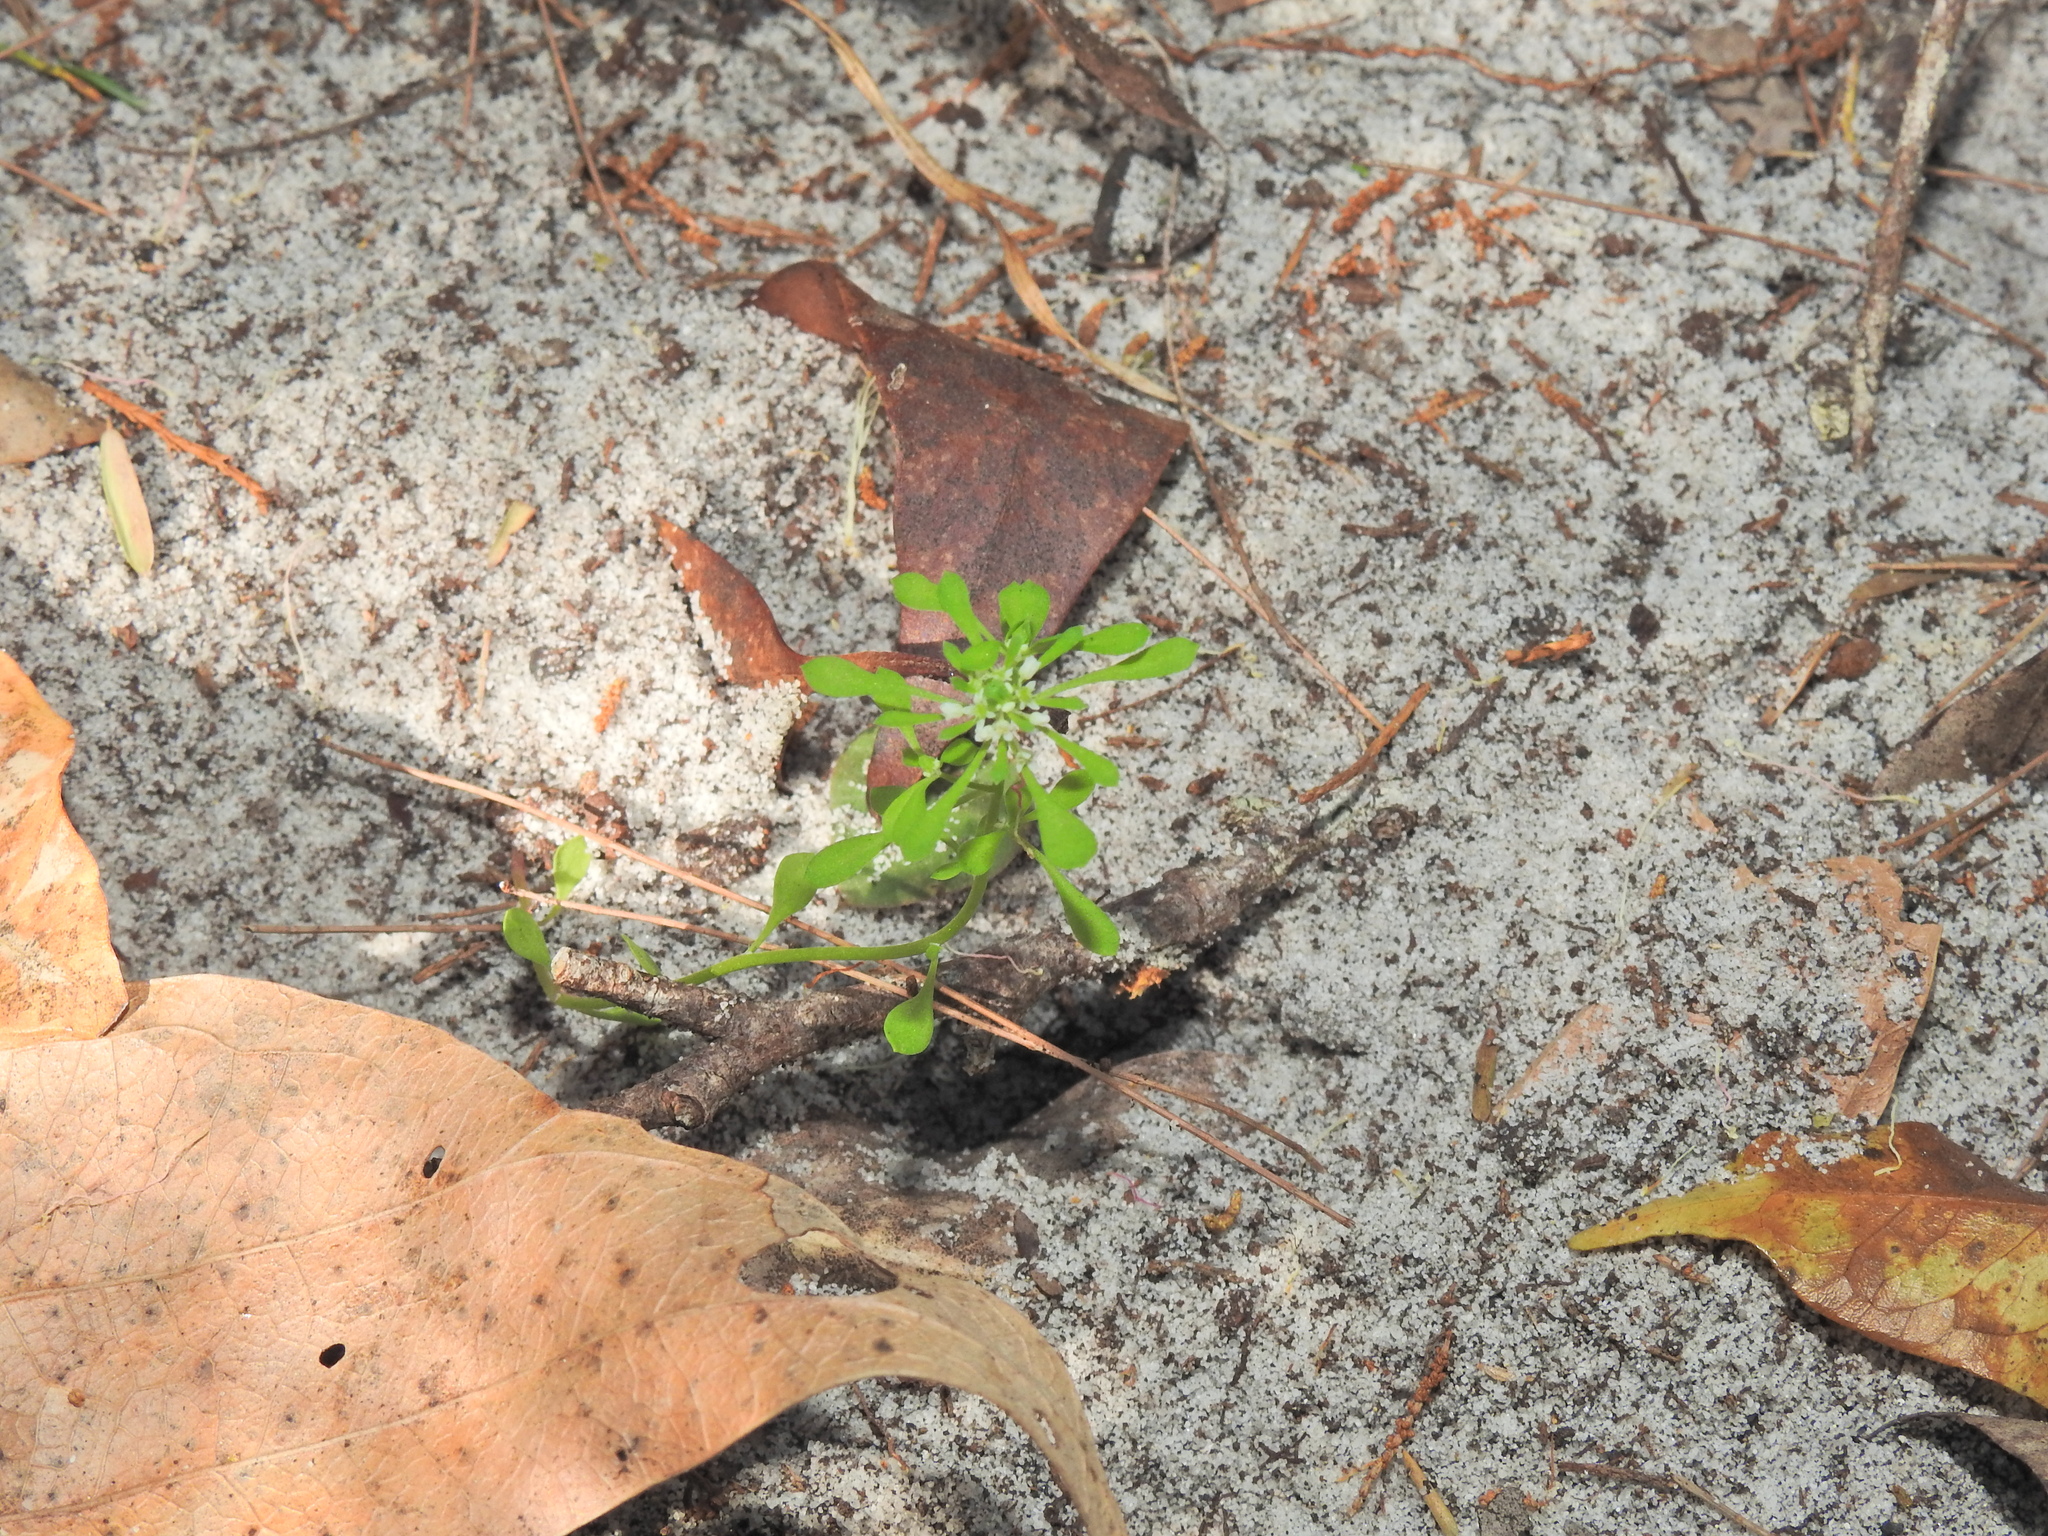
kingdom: Plantae
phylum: Tracheophyta
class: Magnoliopsida
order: Malpighiales
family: Phyllanthaceae
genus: Poranthera
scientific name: Poranthera microphylla
